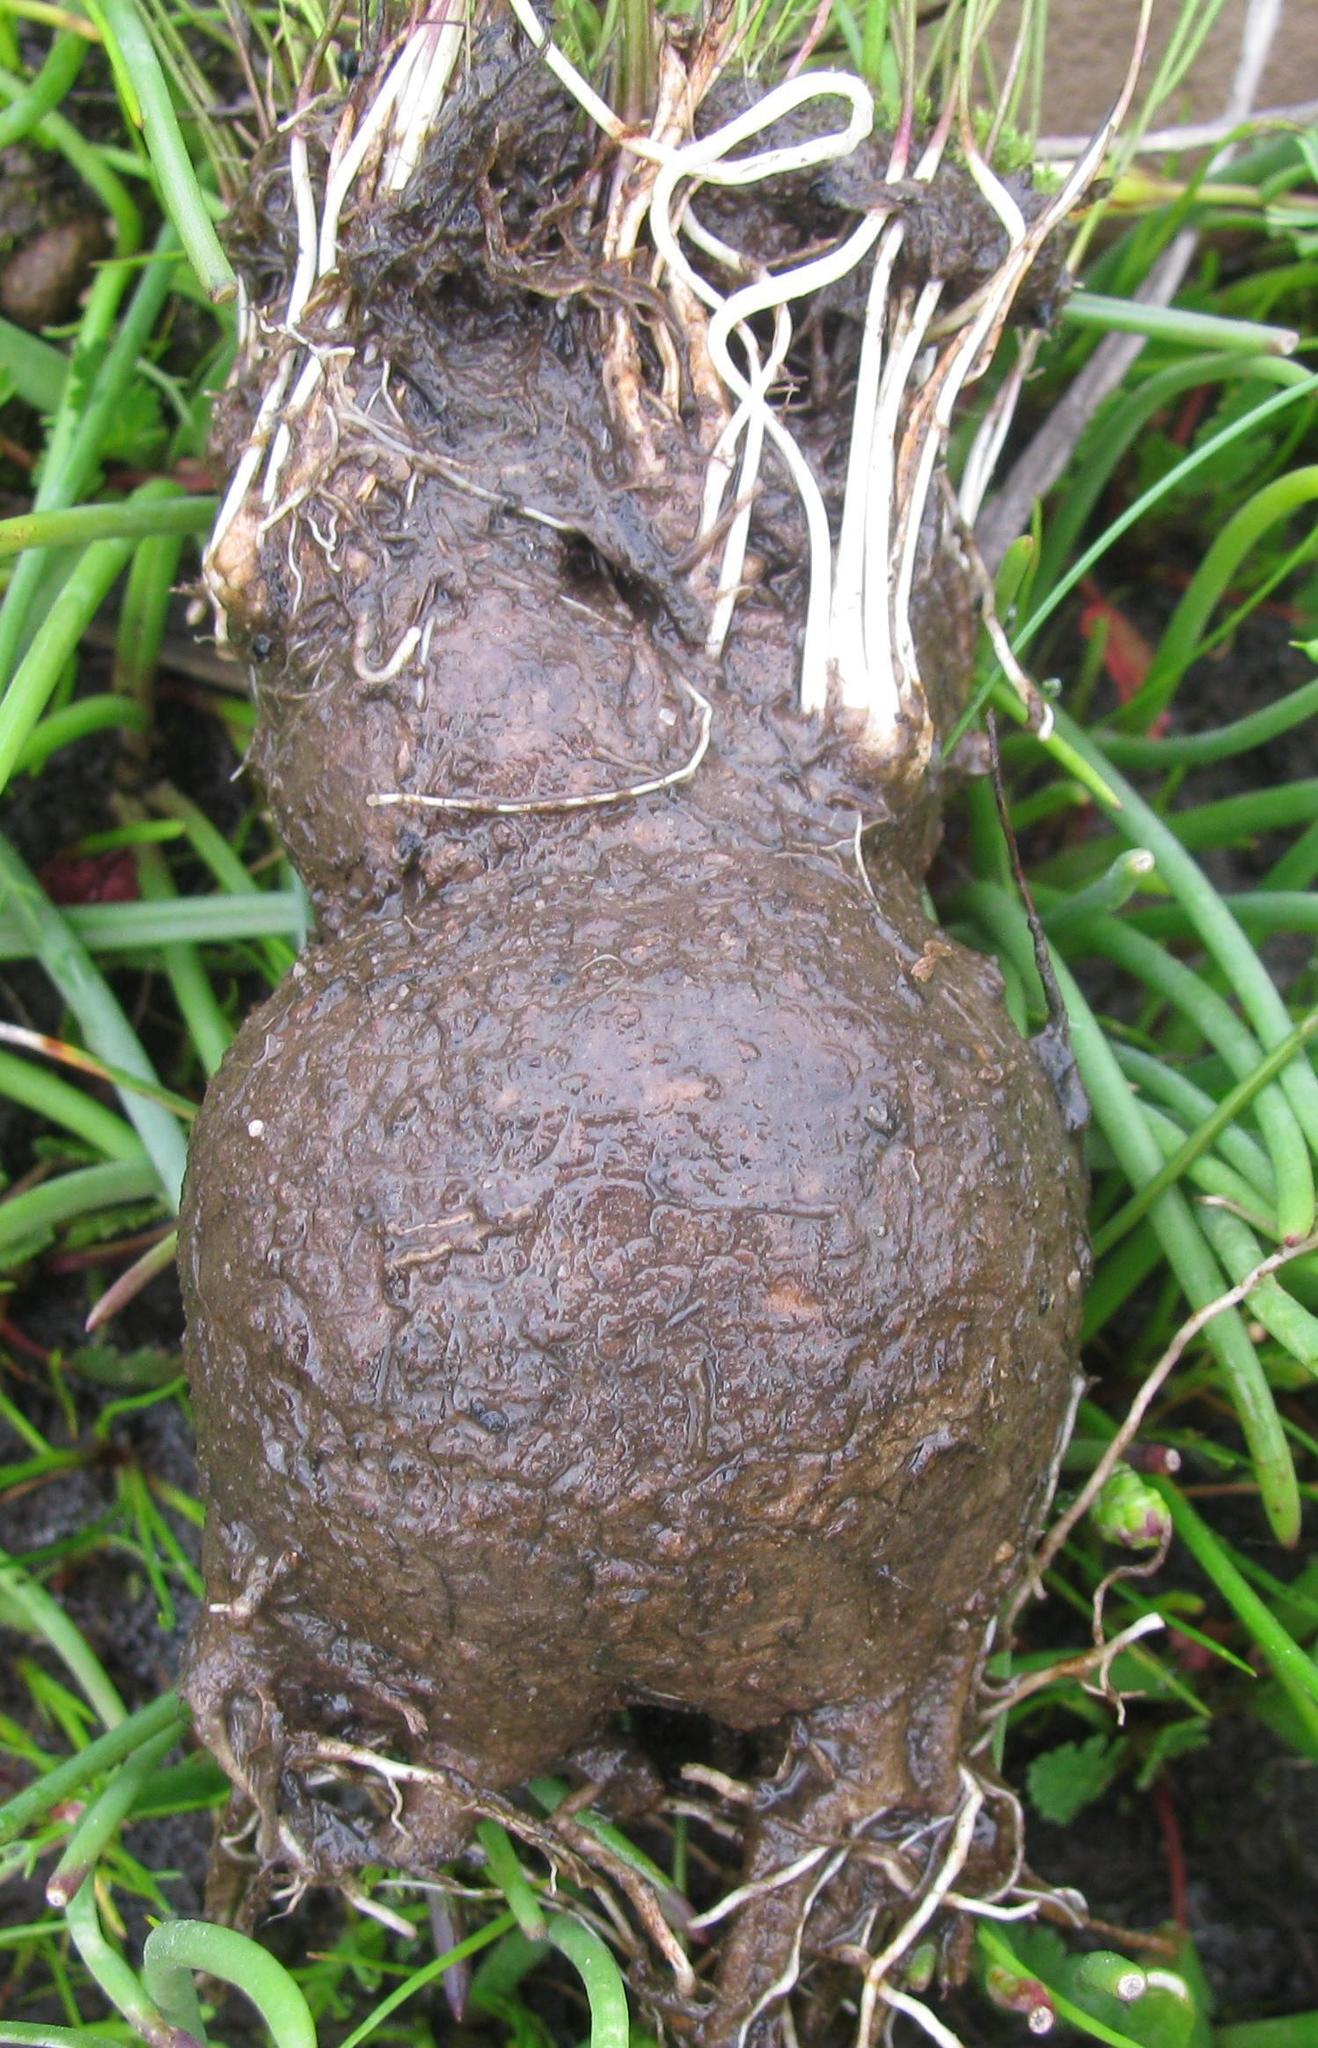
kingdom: Plantae
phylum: Tracheophyta
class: Magnoliopsida
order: Asterales
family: Asteraceae
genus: Othonna
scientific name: Othonna stenophylla
